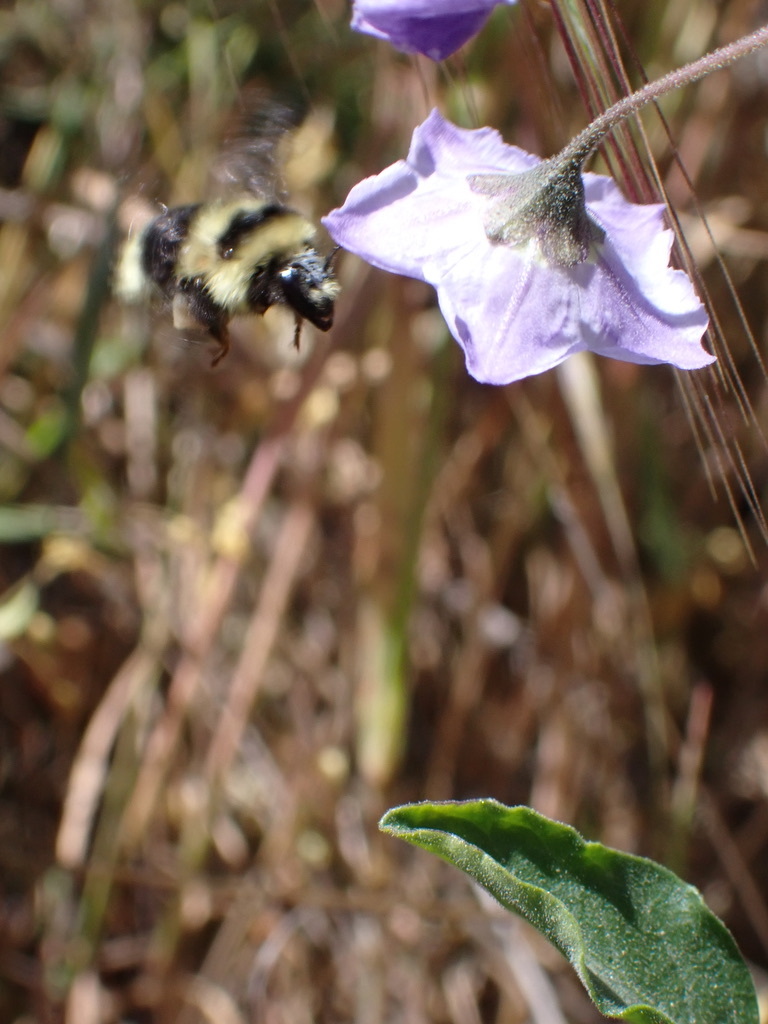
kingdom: Animalia
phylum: Arthropoda
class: Insecta
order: Hymenoptera
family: Apidae
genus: Bombus
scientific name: Bombus melanopygus
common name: Black tail bumble bee
